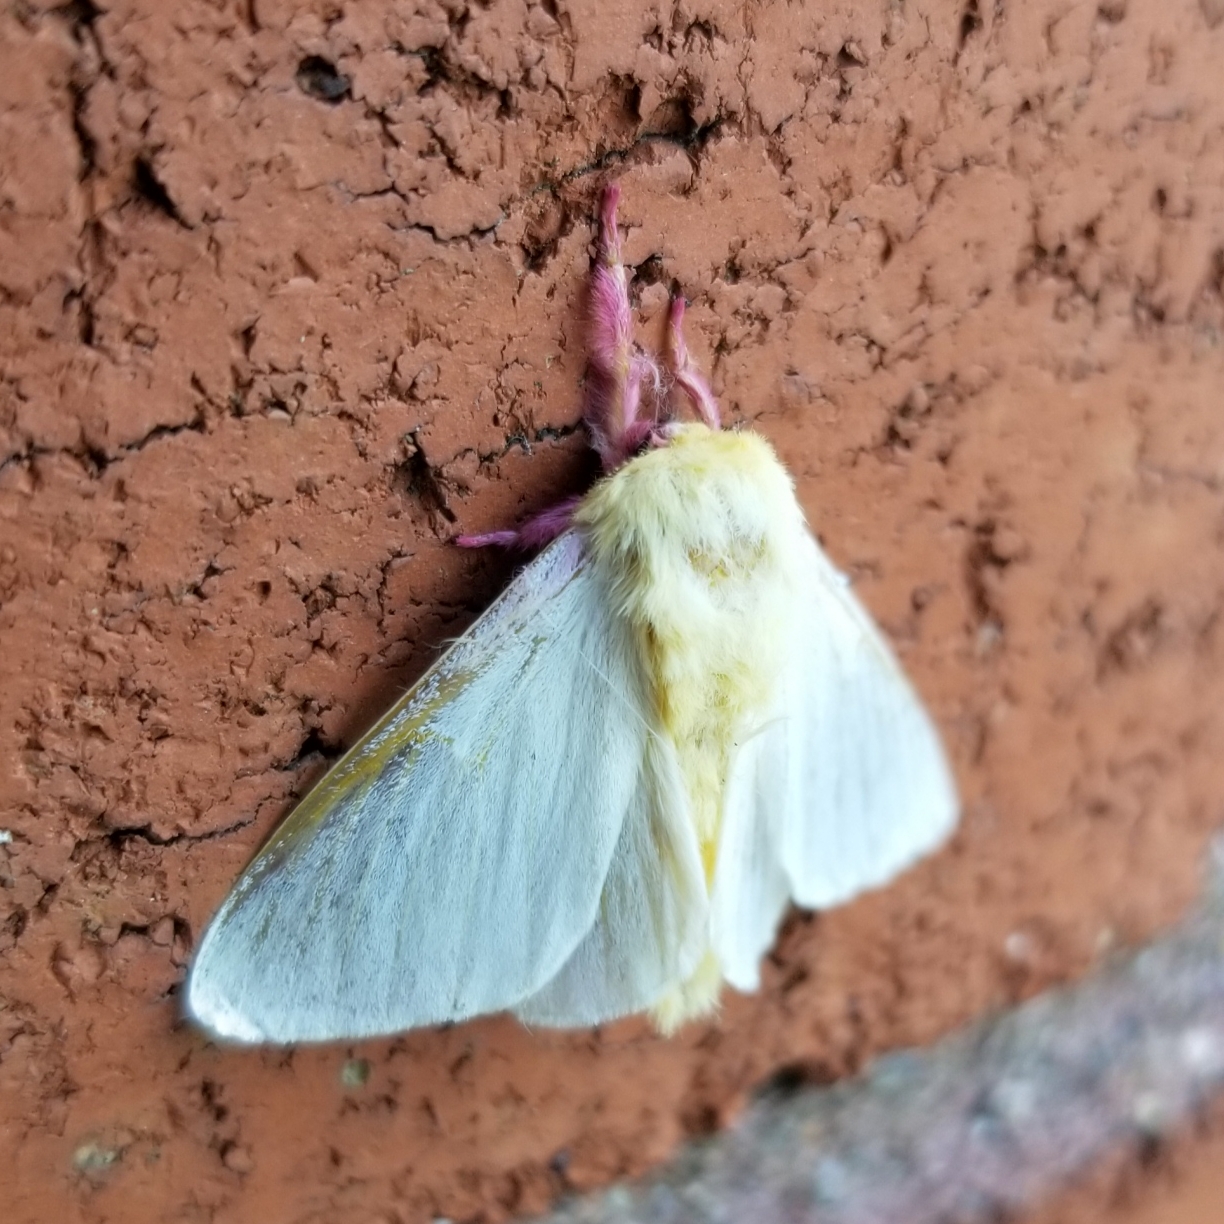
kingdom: Animalia
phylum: Arthropoda
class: Insecta
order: Lepidoptera
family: Saturniidae
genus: Dryocampa
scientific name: Dryocampa rubicunda
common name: Rosy maple moth
